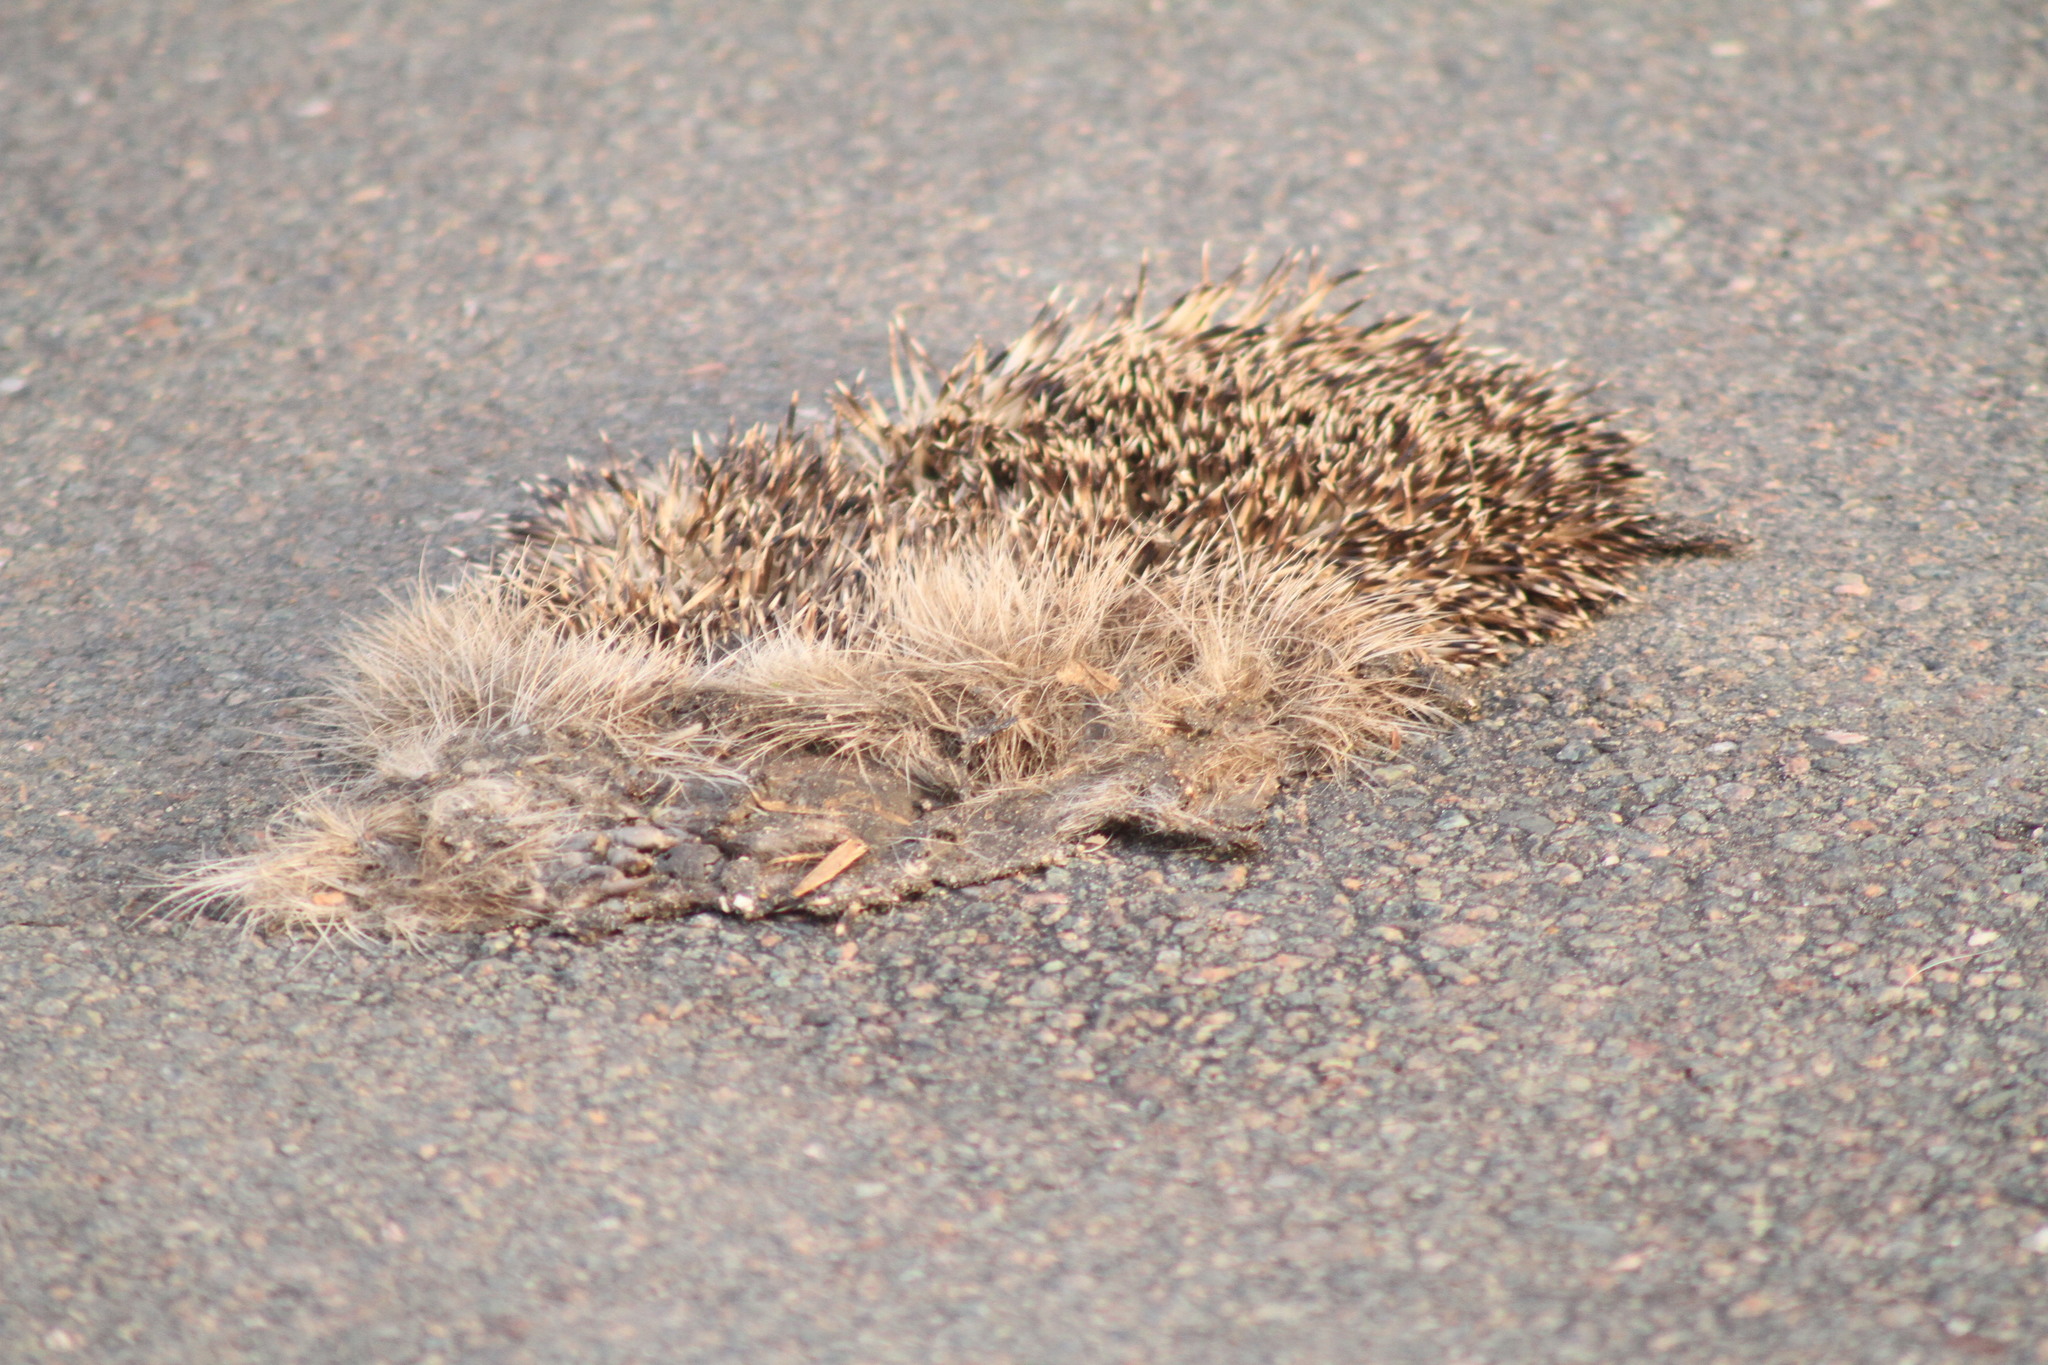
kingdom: Animalia
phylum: Chordata
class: Mammalia
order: Erinaceomorpha
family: Erinaceidae
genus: Erinaceus
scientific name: Erinaceus europaeus
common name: West european hedgehog
